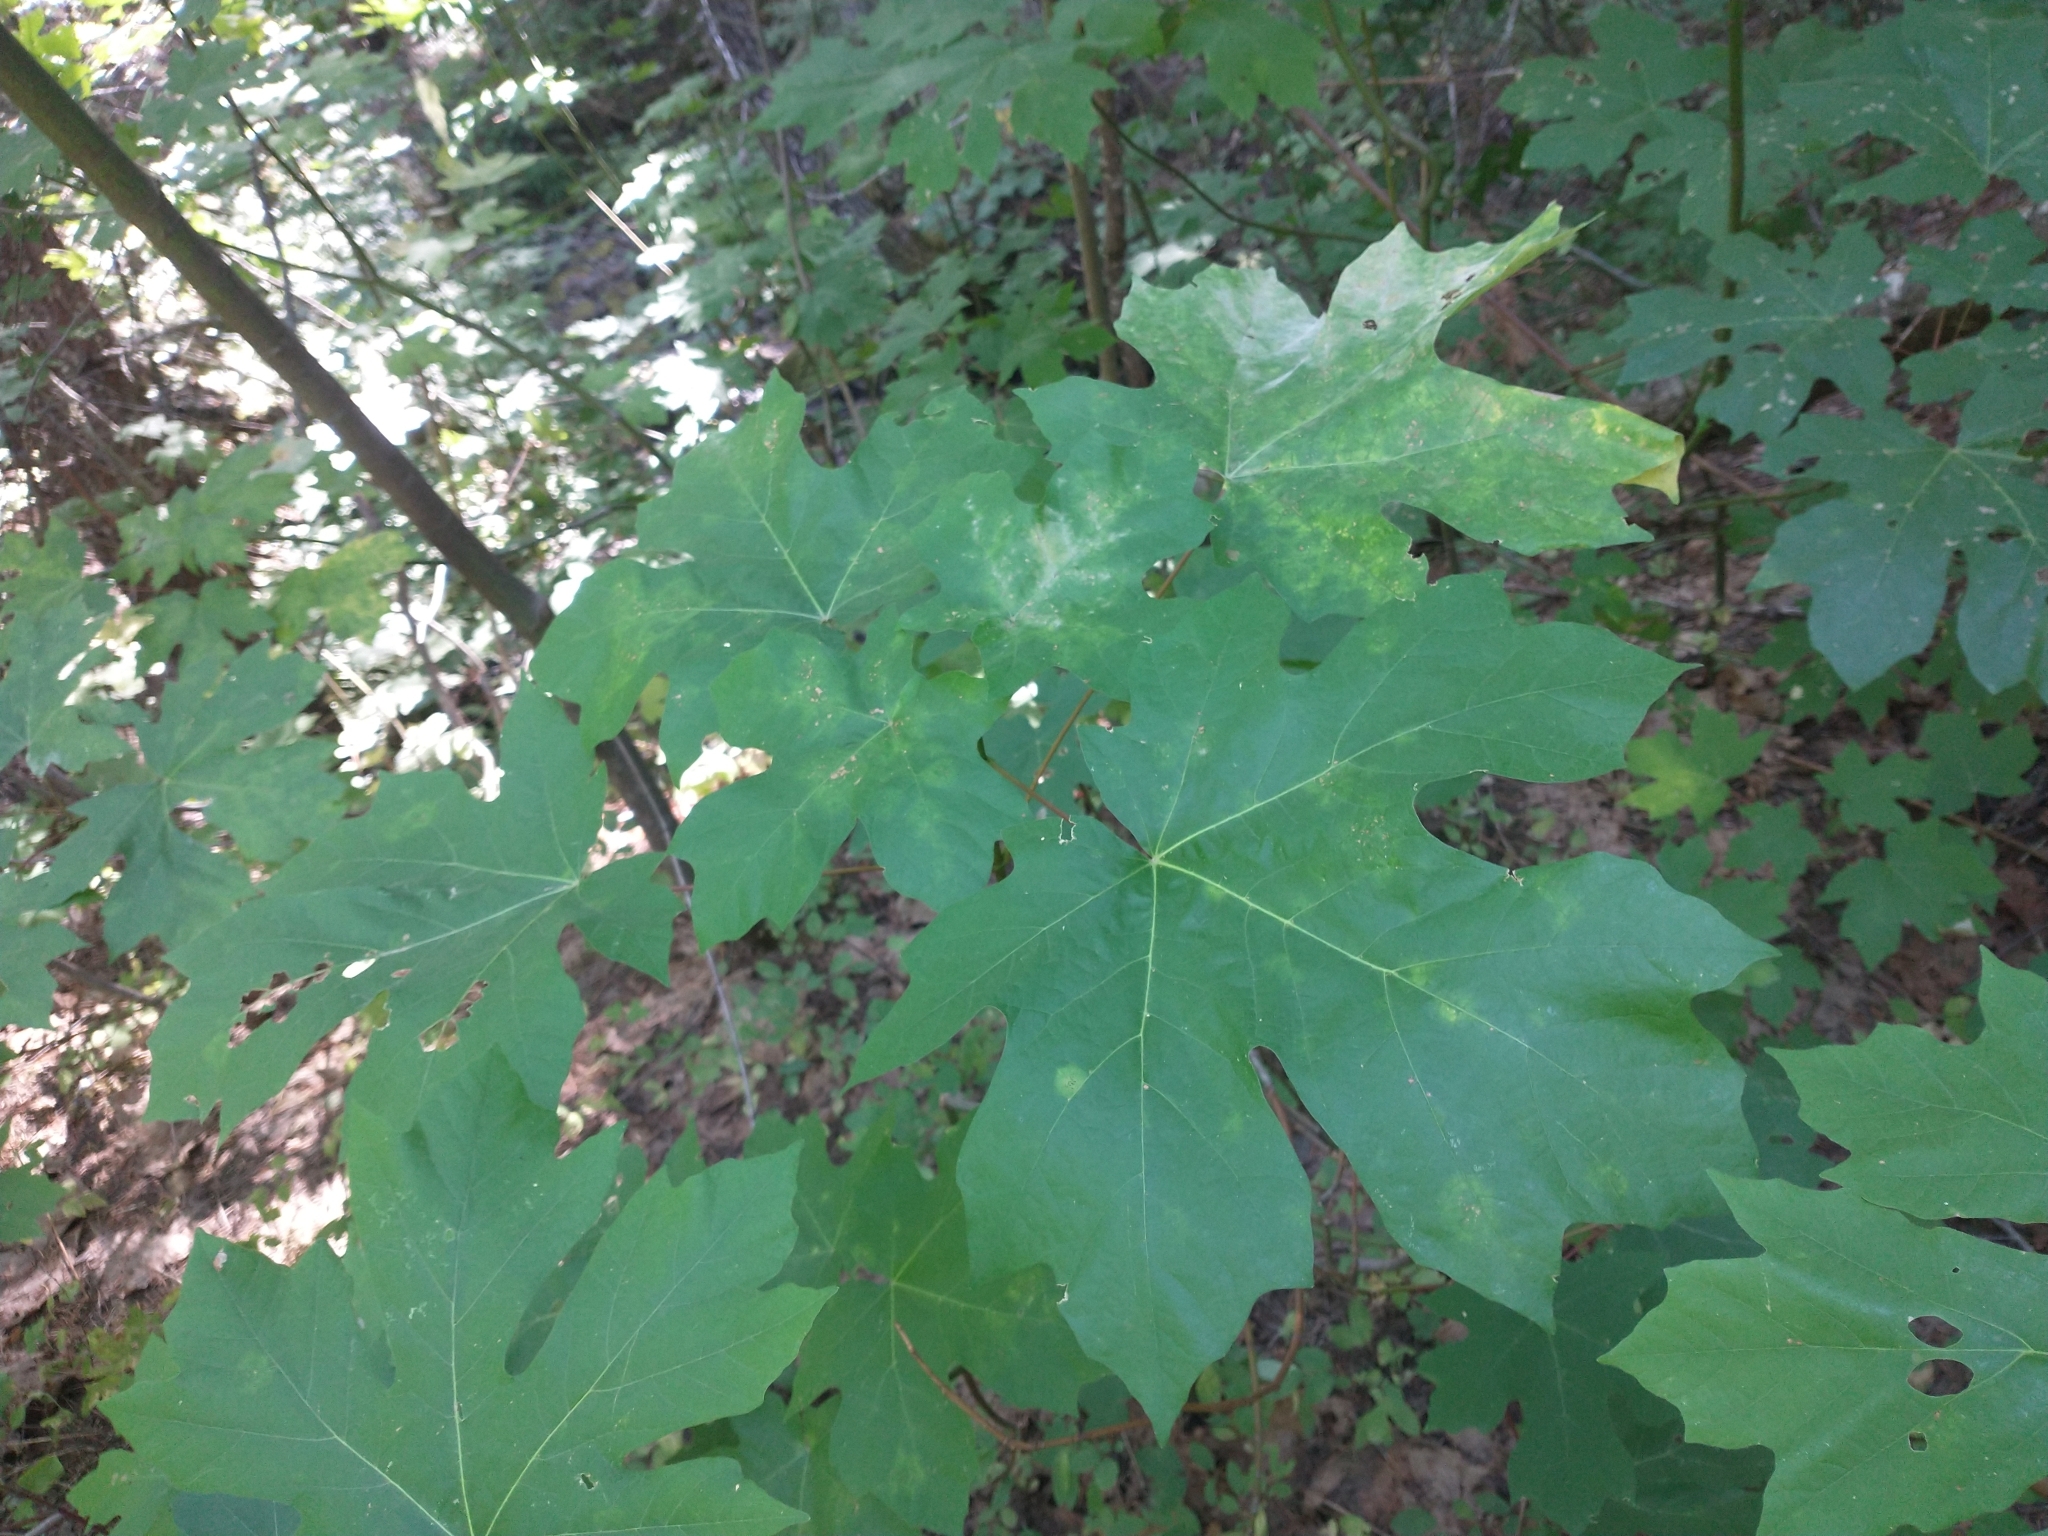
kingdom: Plantae
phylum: Tracheophyta
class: Magnoliopsida
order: Sapindales
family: Sapindaceae
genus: Acer
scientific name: Acer macrophyllum
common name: Oregon maple
